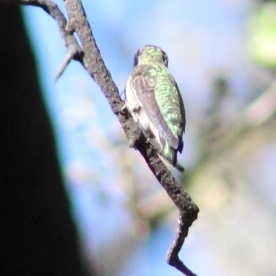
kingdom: Animalia
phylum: Chordata
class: Aves
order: Apodiformes
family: Trochilidae
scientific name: Trochilidae
